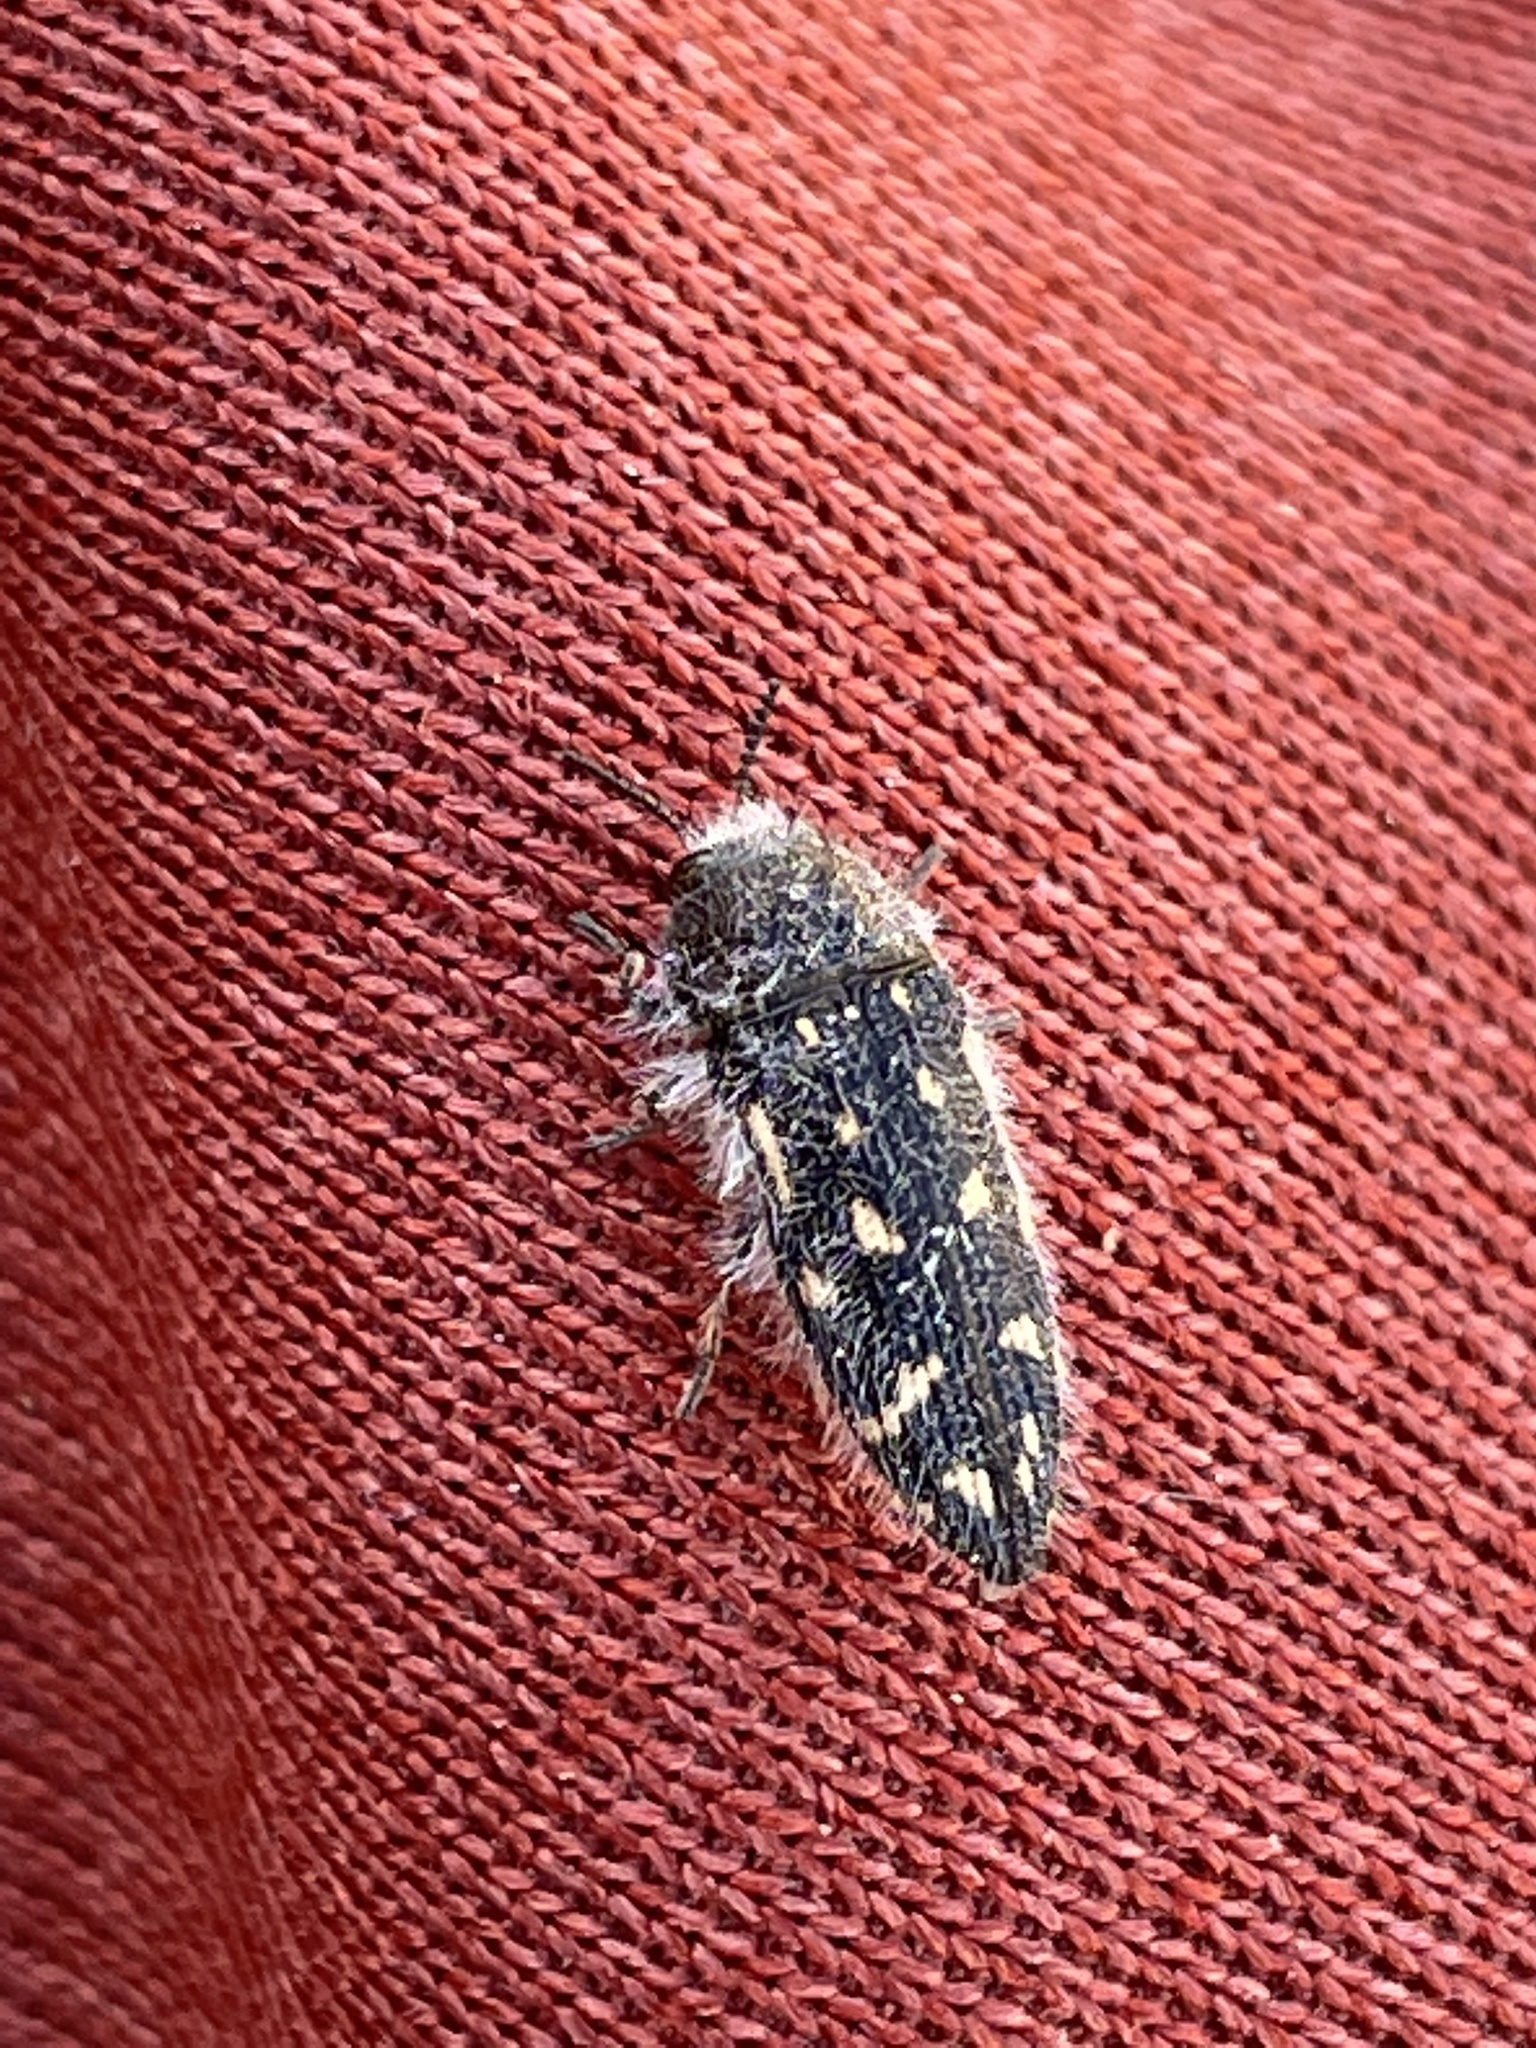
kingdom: Animalia
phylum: Arthropoda
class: Insecta
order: Coleoptera
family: Buprestidae
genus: Acmaeodera
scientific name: Acmaeodera mojavei
